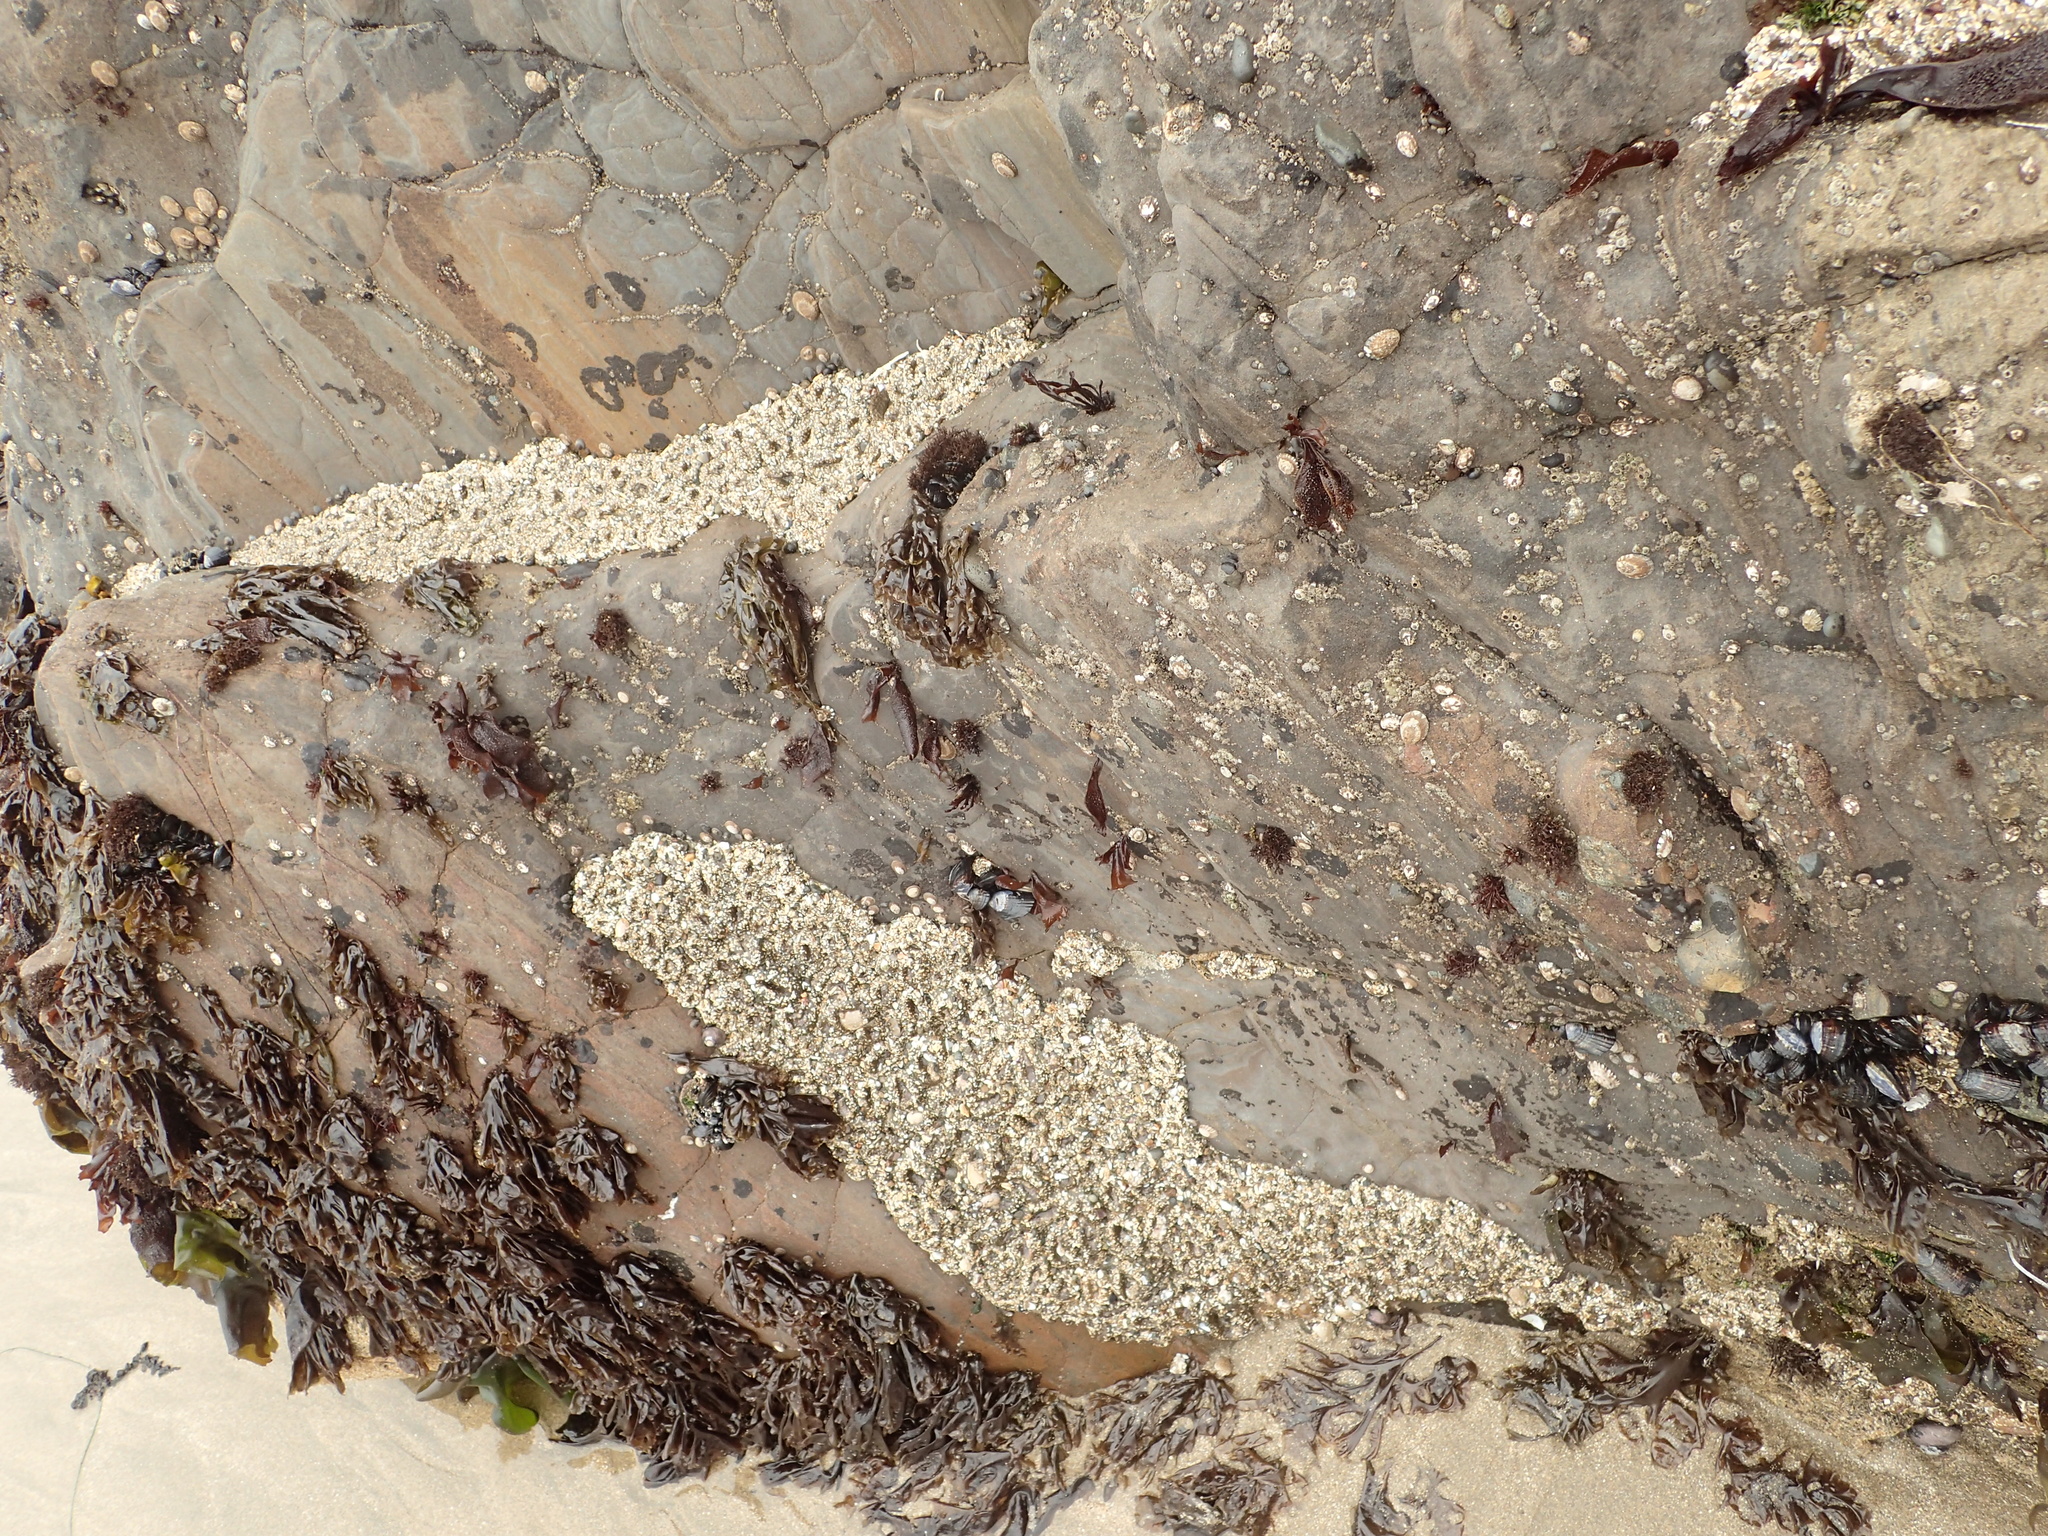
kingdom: Animalia
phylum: Cnidaria
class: Anthozoa
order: Actiniaria
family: Actiniidae
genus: Anthopleura
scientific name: Anthopleura elegantissima
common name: Clonal anemone
